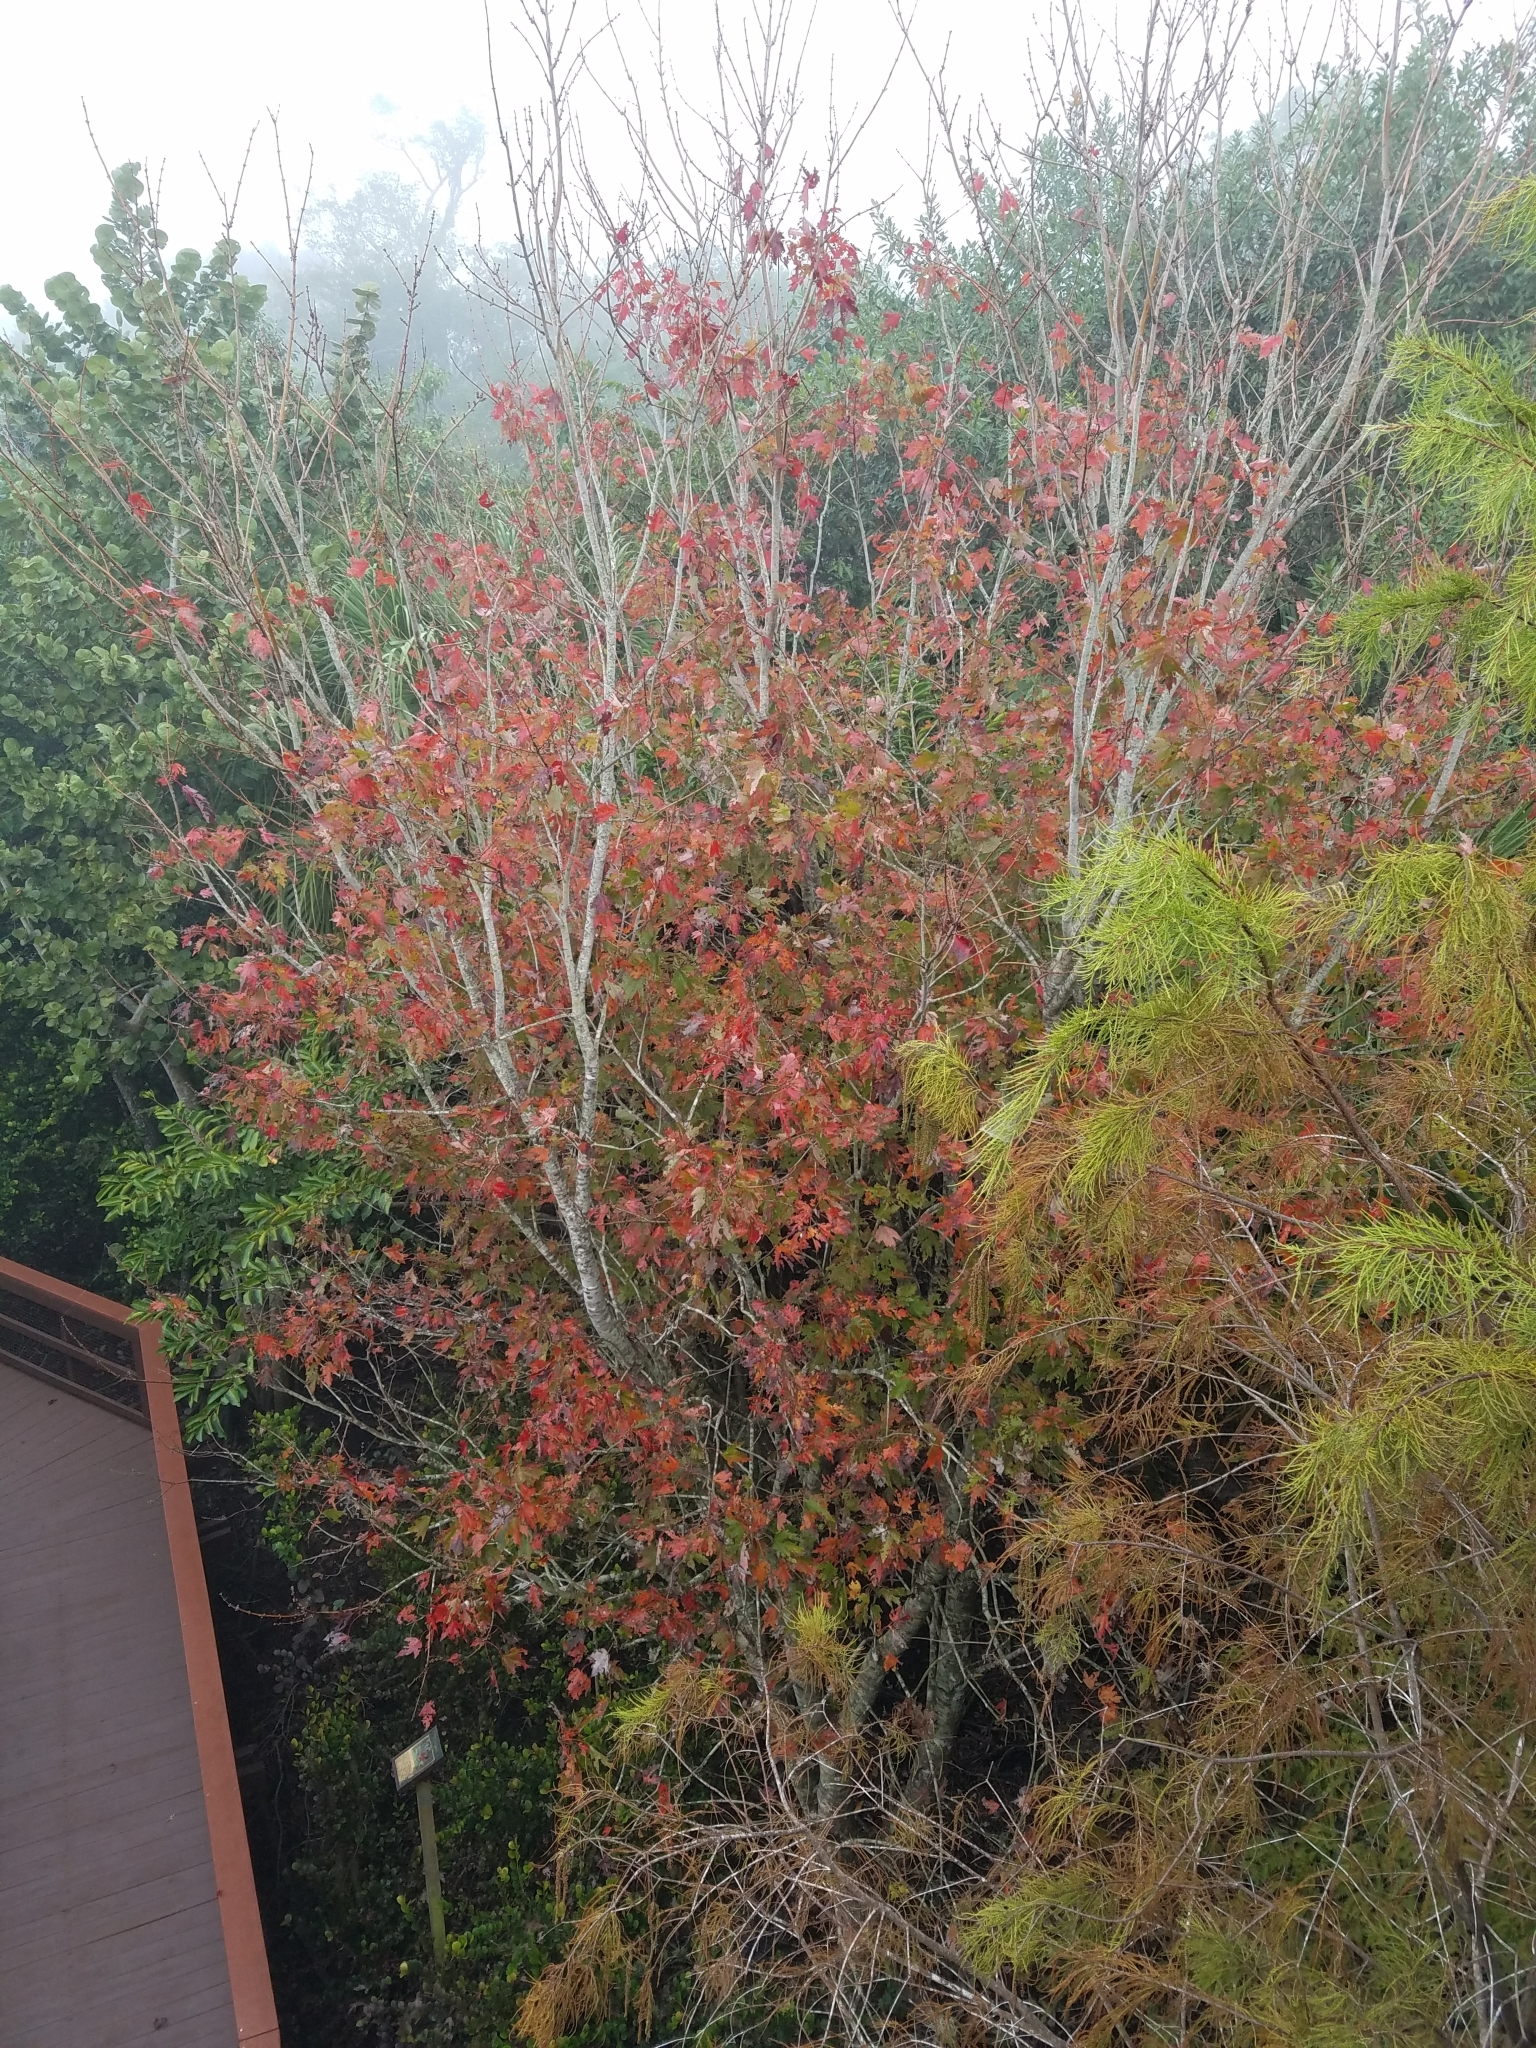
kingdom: Plantae
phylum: Tracheophyta
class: Magnoliopsida
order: Sapindales
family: Sapindaceae
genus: Acer
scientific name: Acer rubrum
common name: Red maple
